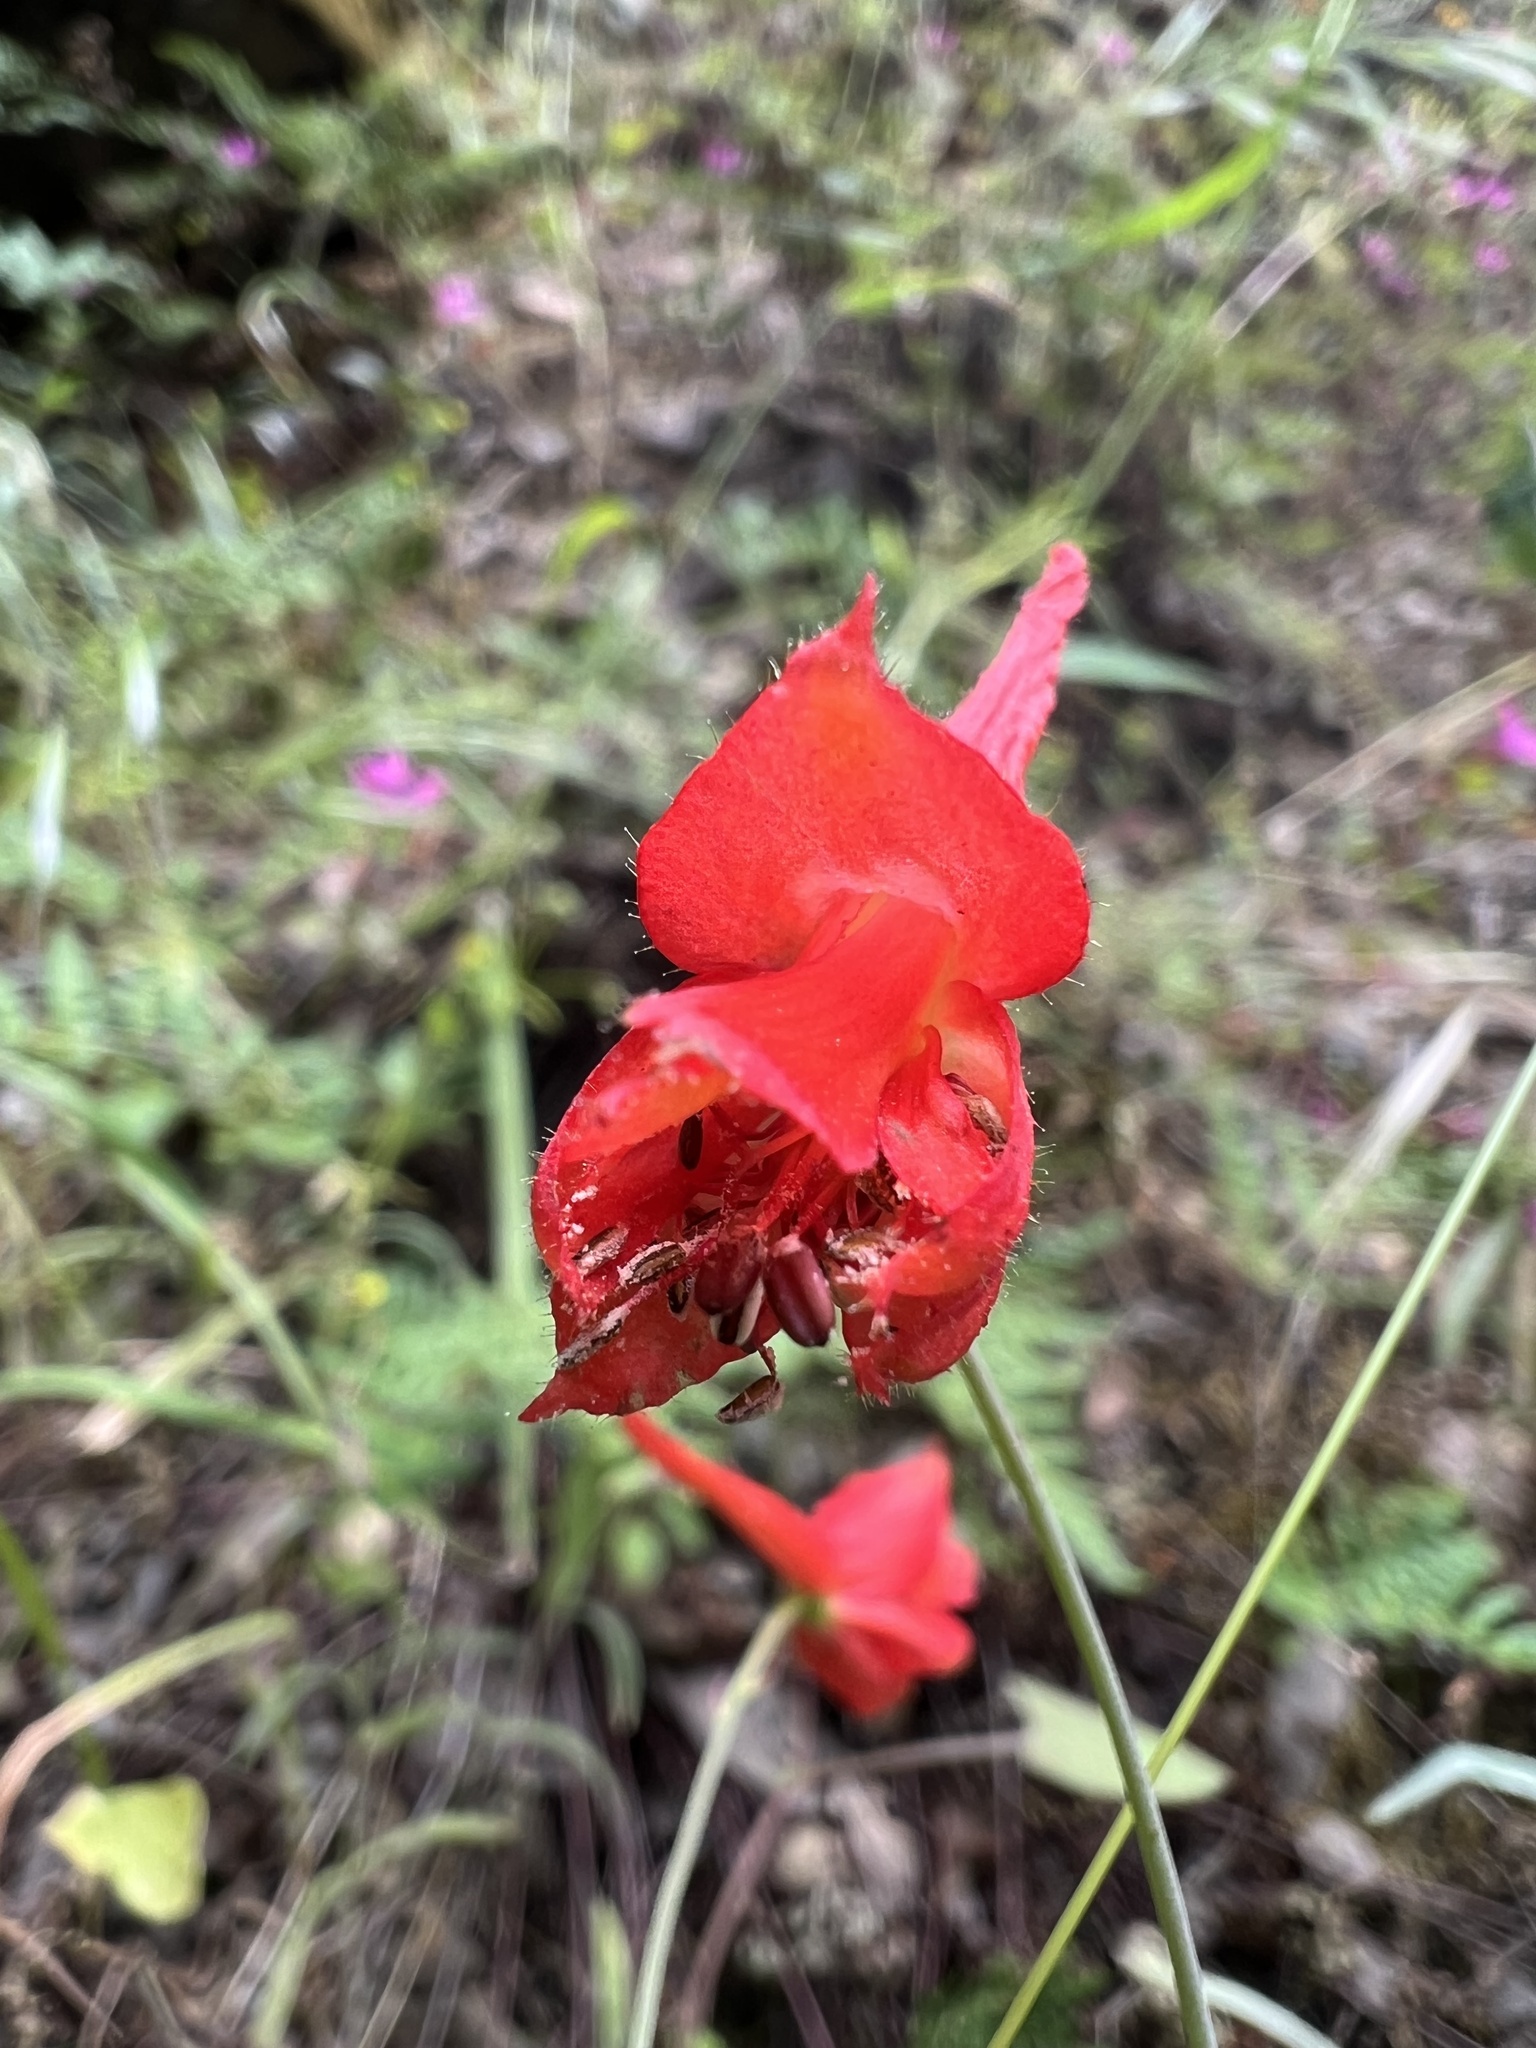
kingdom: Plantae
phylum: Tracheophyta
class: Magnoliopsida
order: Ranunculales
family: Ranunculaceae
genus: Delphinium
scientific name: Delphinium nudicaule
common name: Red larkspur
